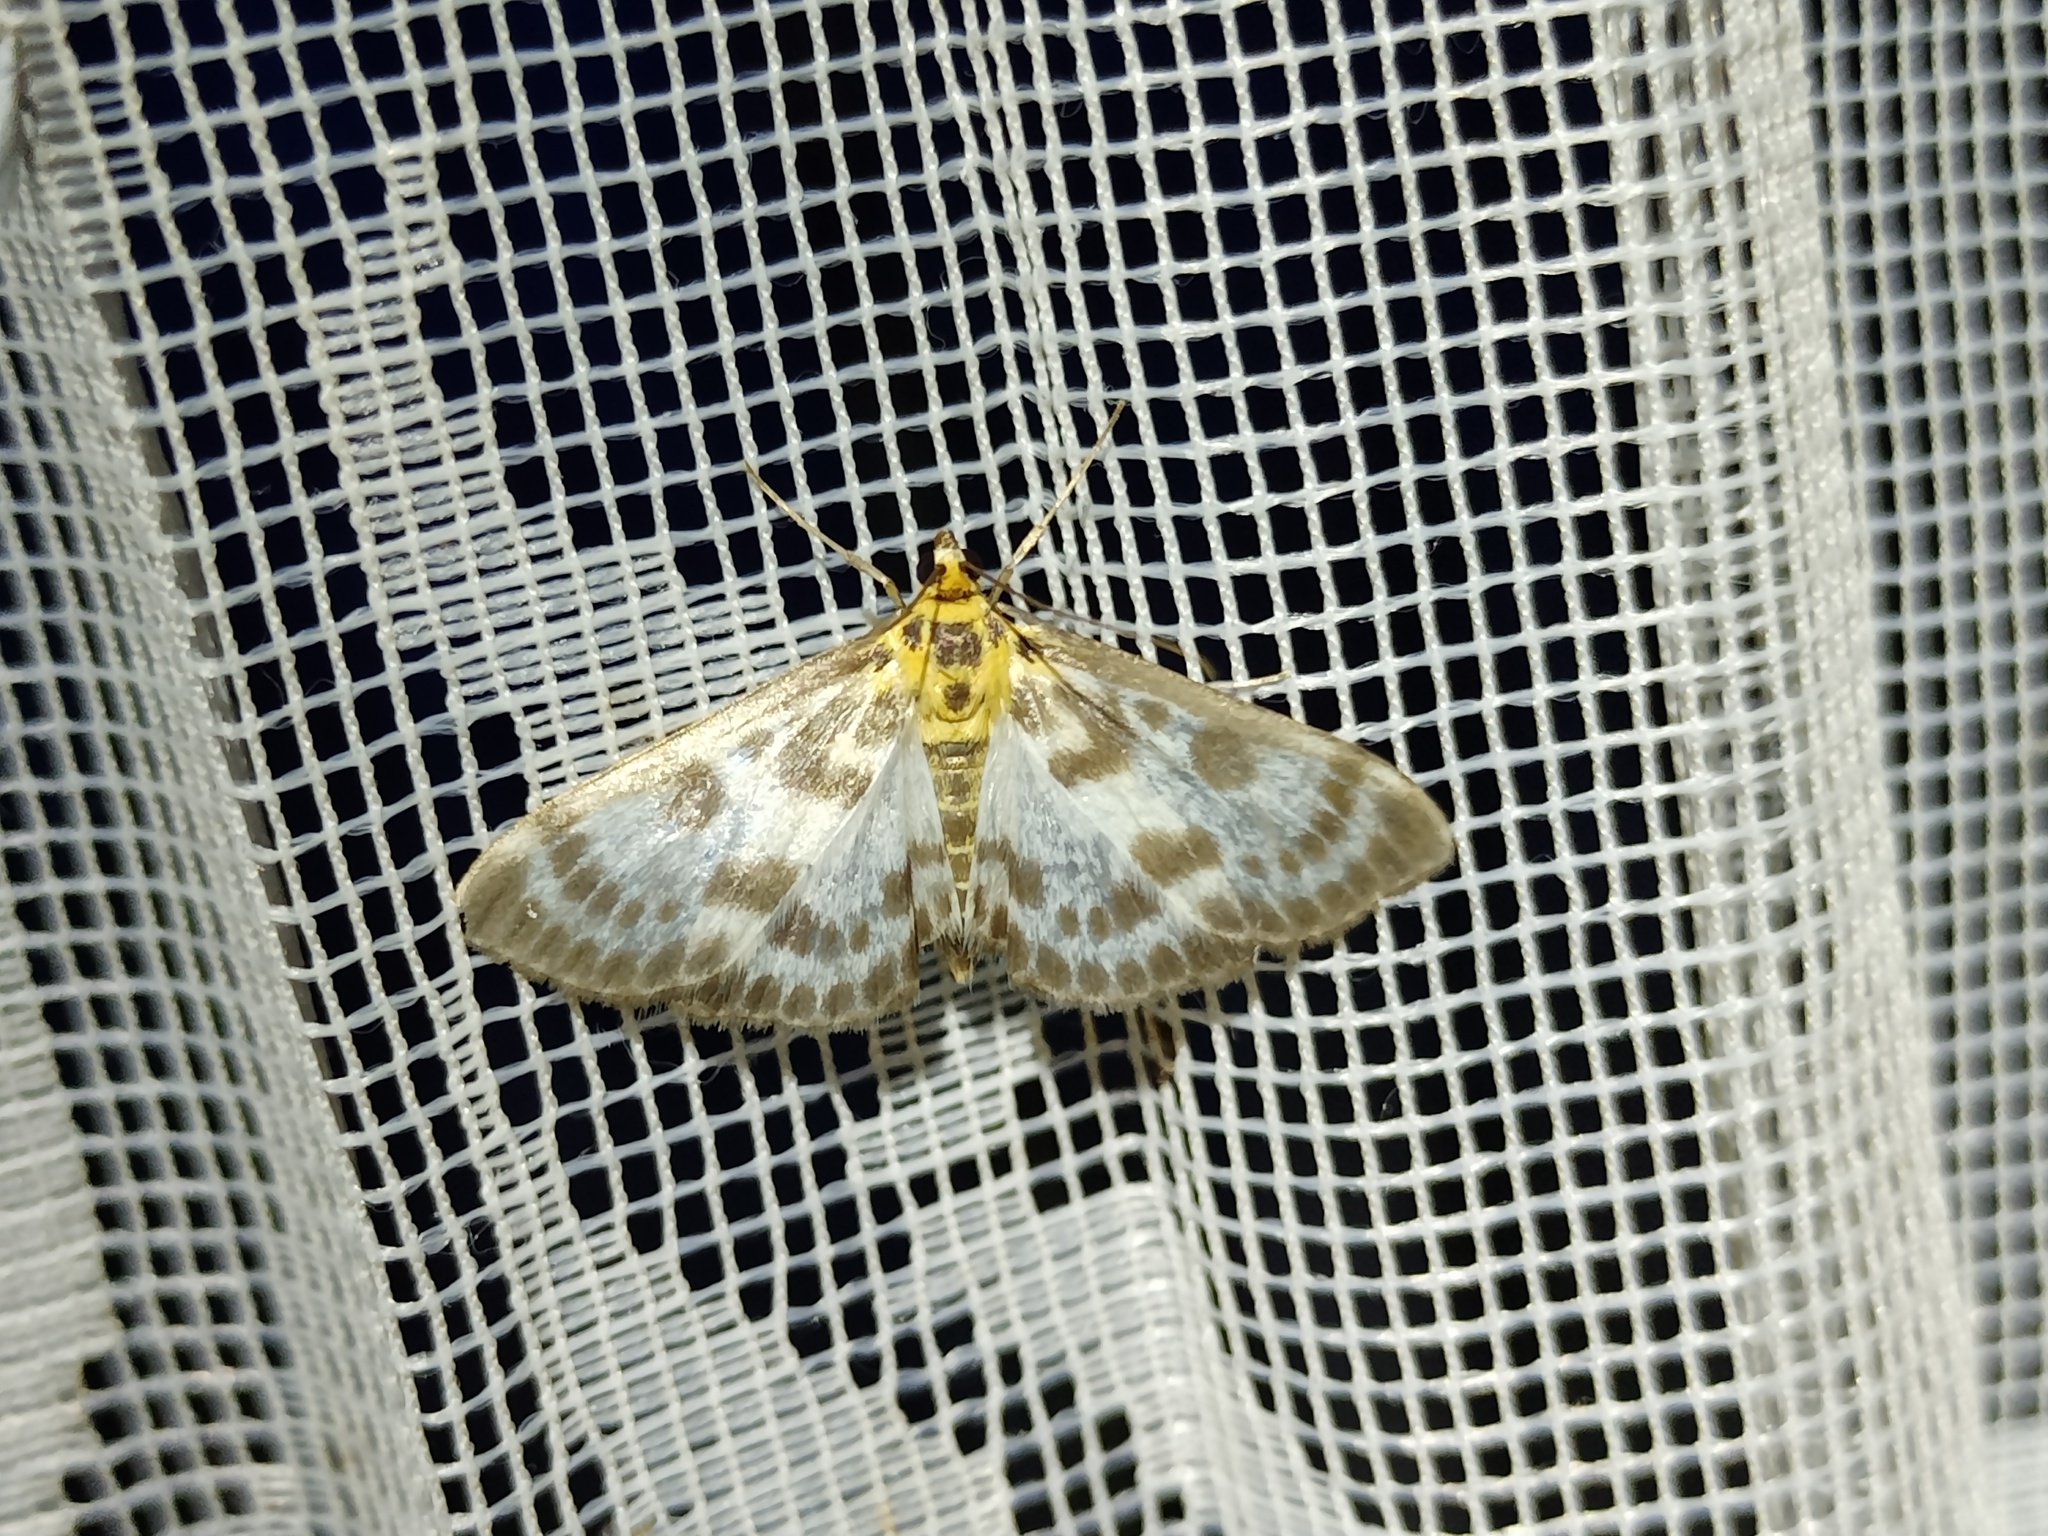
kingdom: Animalia
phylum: Arthropoda
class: Insecta
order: Lepidoptera
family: Crambidae
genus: Anania
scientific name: Anania hortulata
